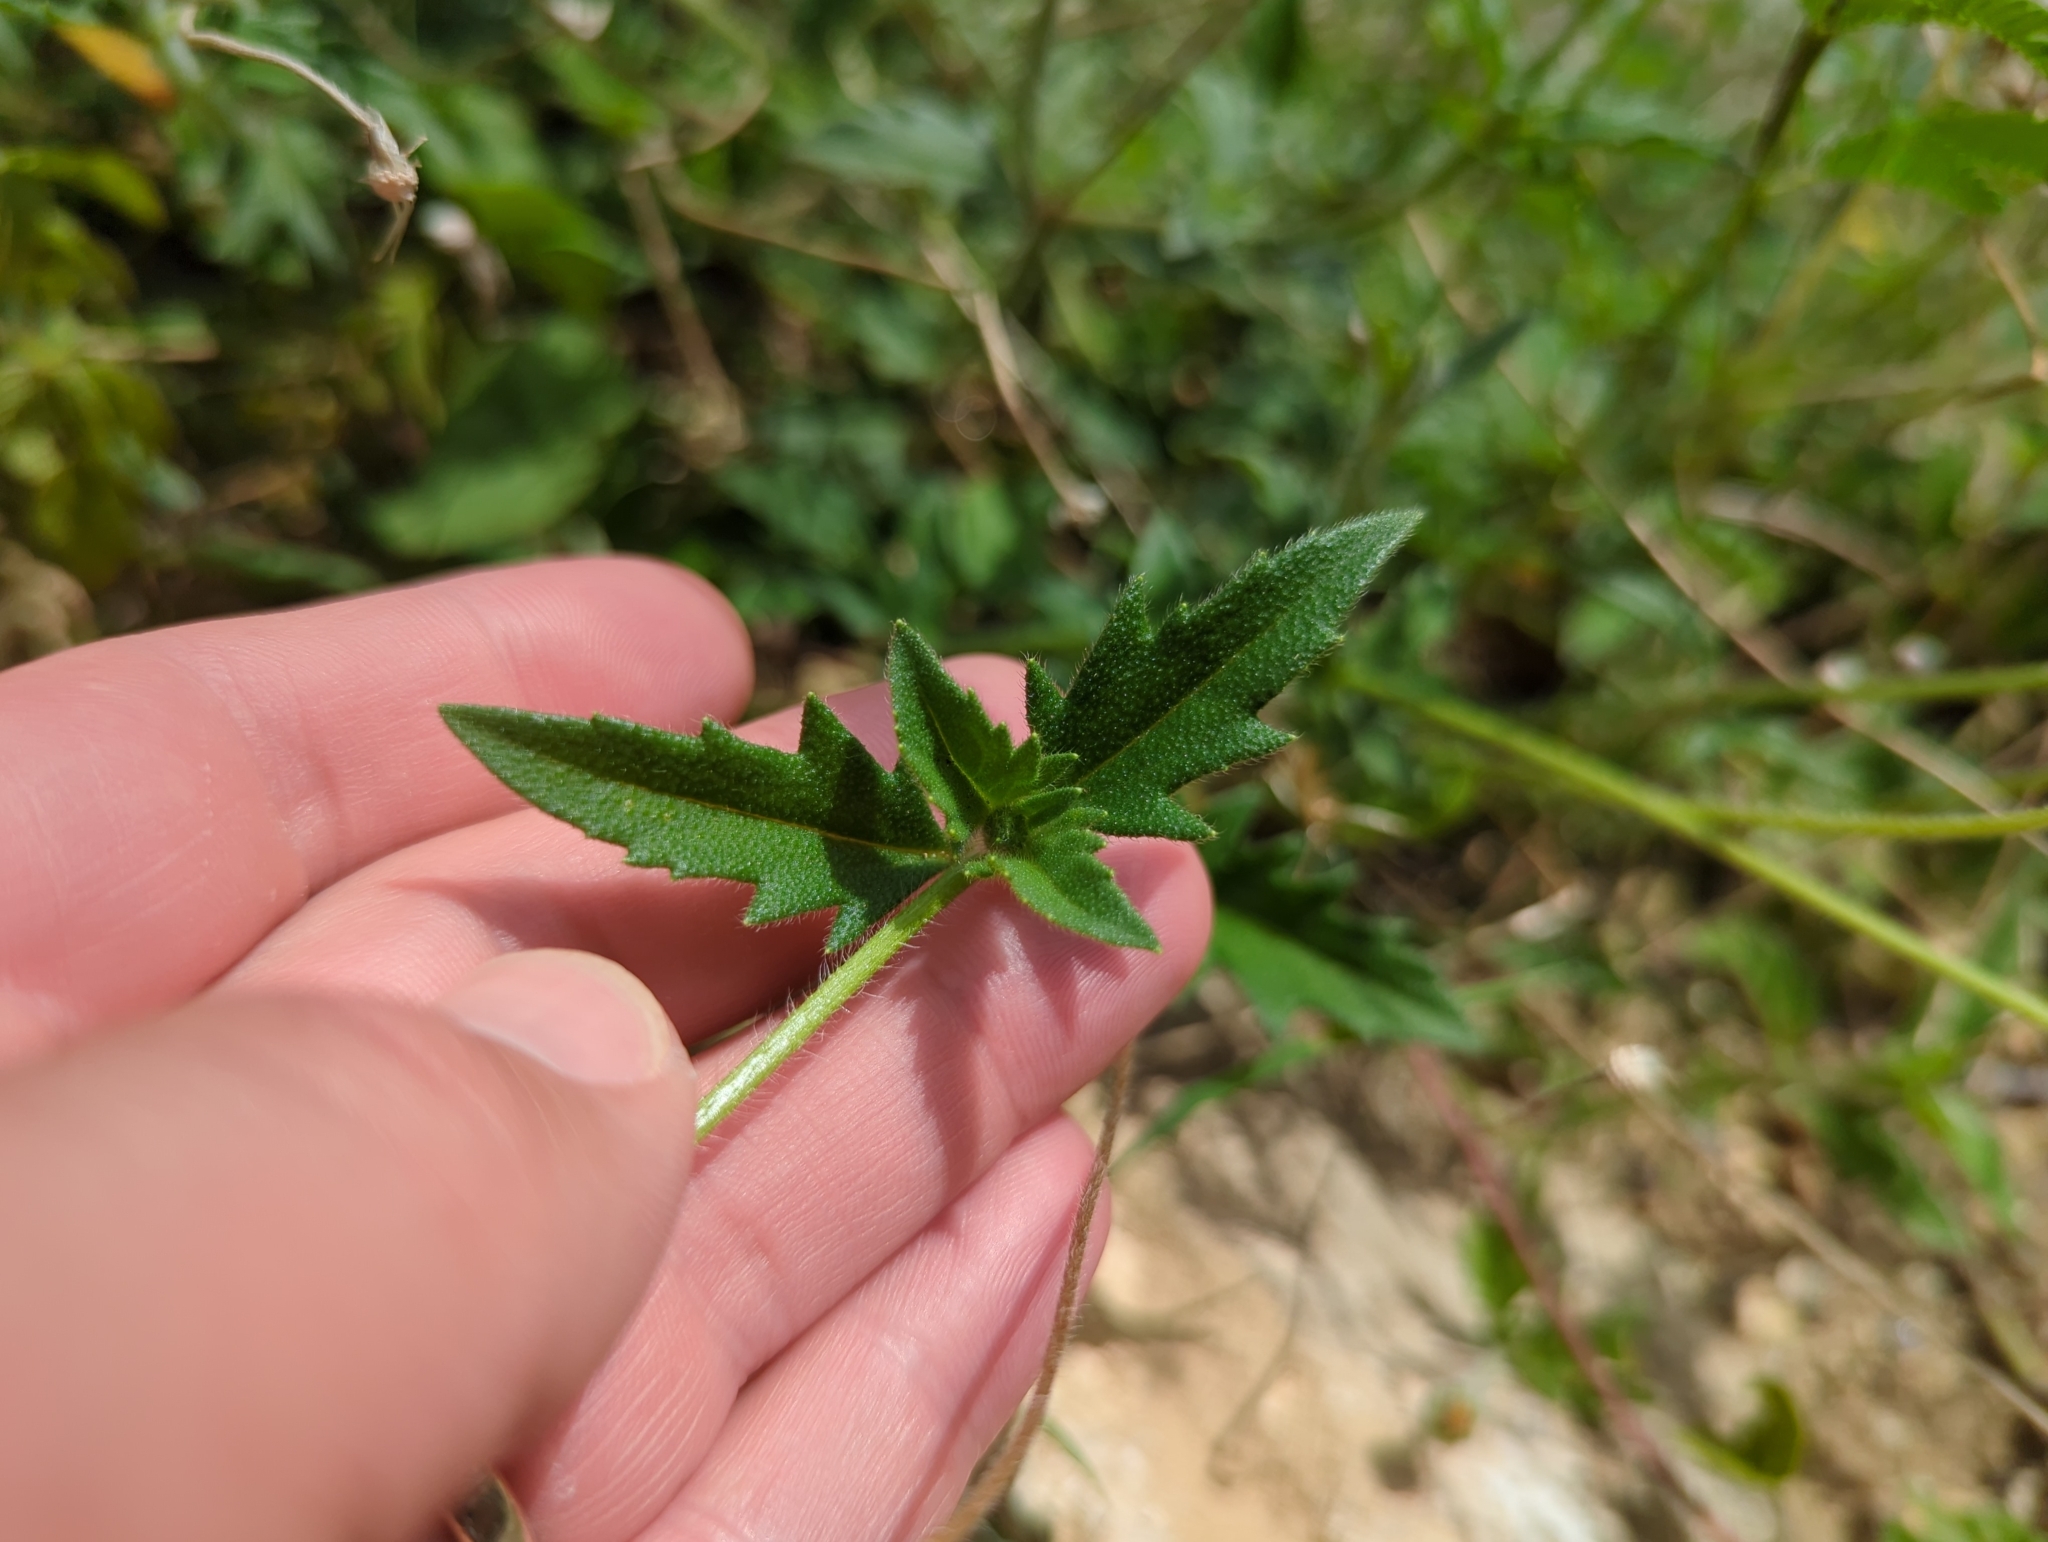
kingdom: Plantae
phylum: Tracheophyta
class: Magnoliopsida
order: Asterales
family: Asteraceae
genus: Tridax
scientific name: Tridax procumbens
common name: Coatbuttons
